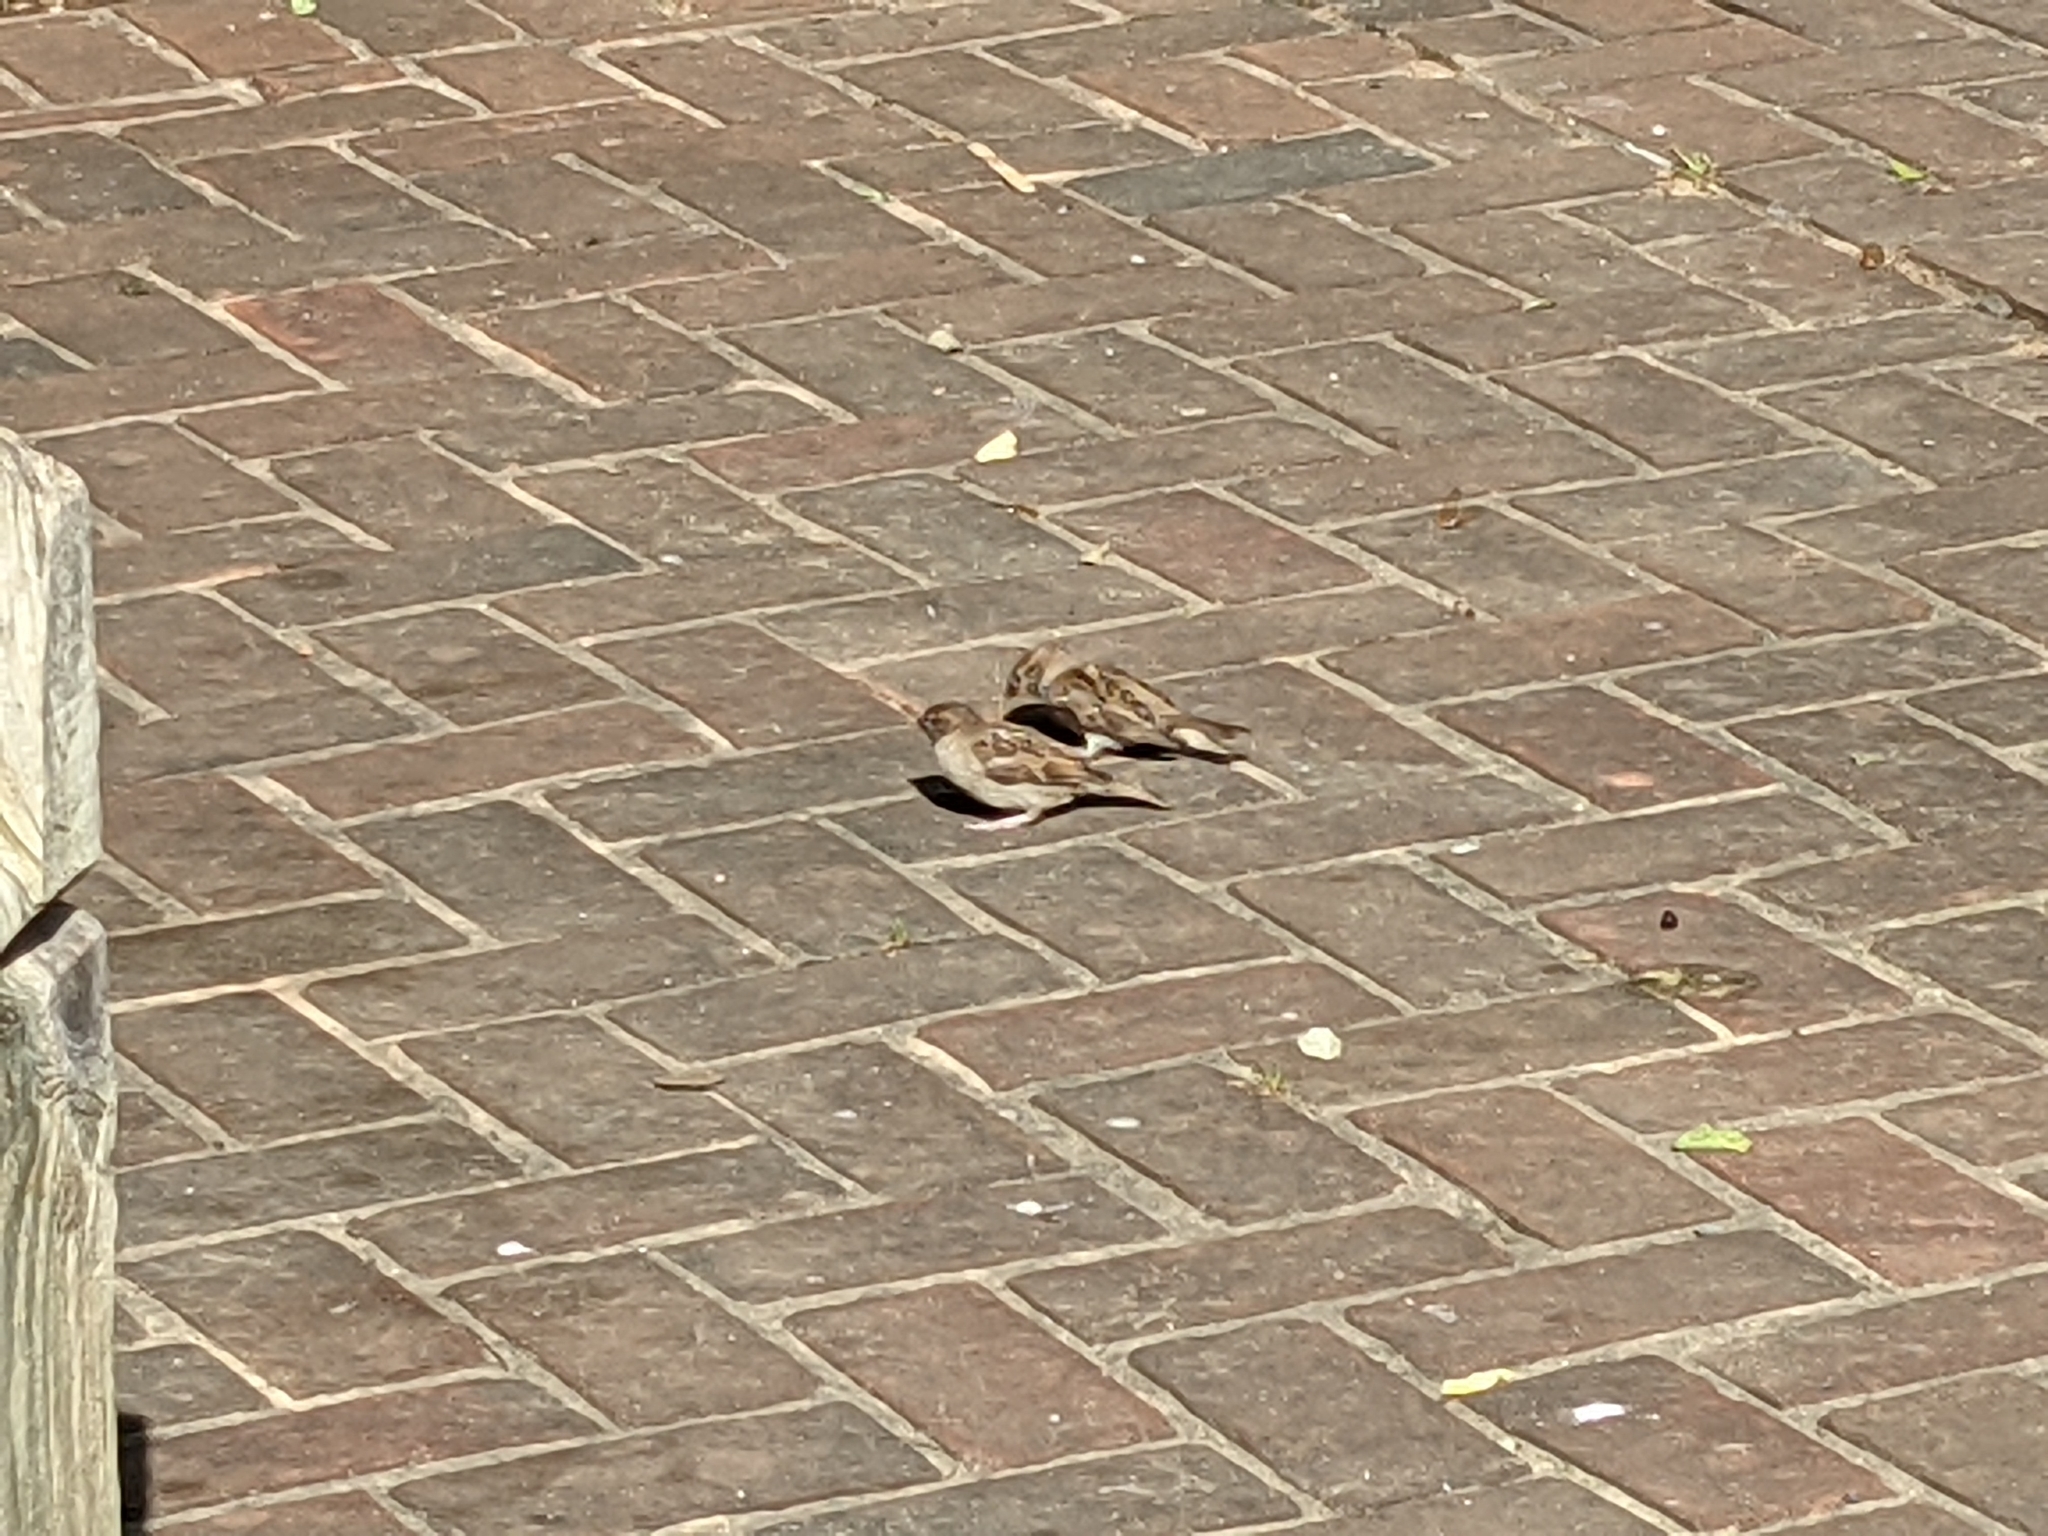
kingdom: Animalia
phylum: Chordata
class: Aves
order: Passeriformes
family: Passeridae
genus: Passer
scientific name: Passer domesticus
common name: House sparrow
